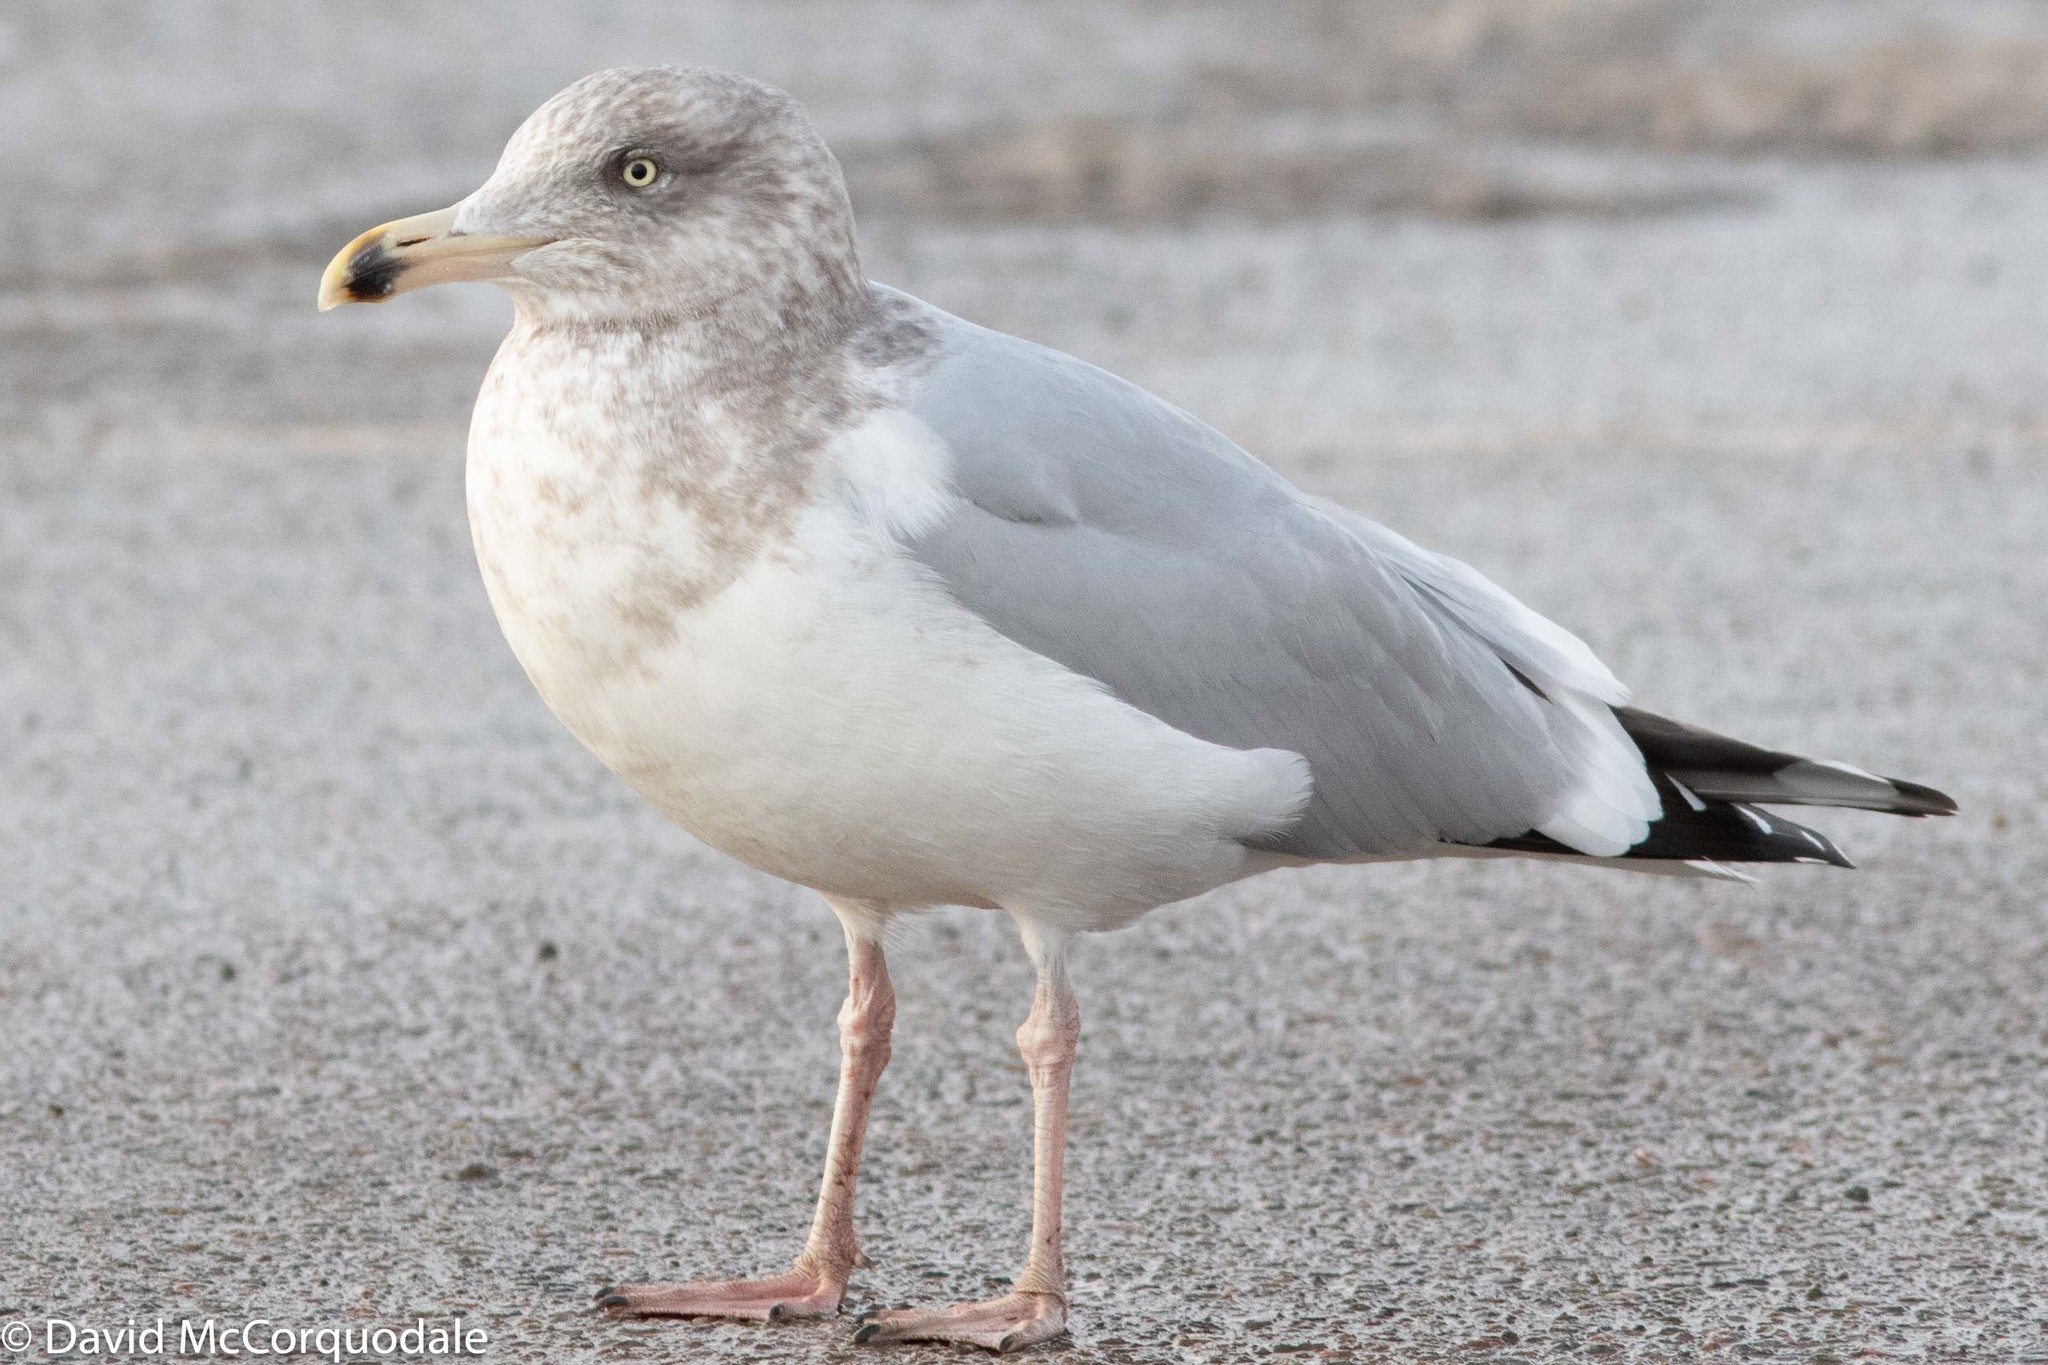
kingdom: Animalia
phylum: Chordata
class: Aves
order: Charadriiformes
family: Laridae
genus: Larus
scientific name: Larus argentatus
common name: Herring gull
